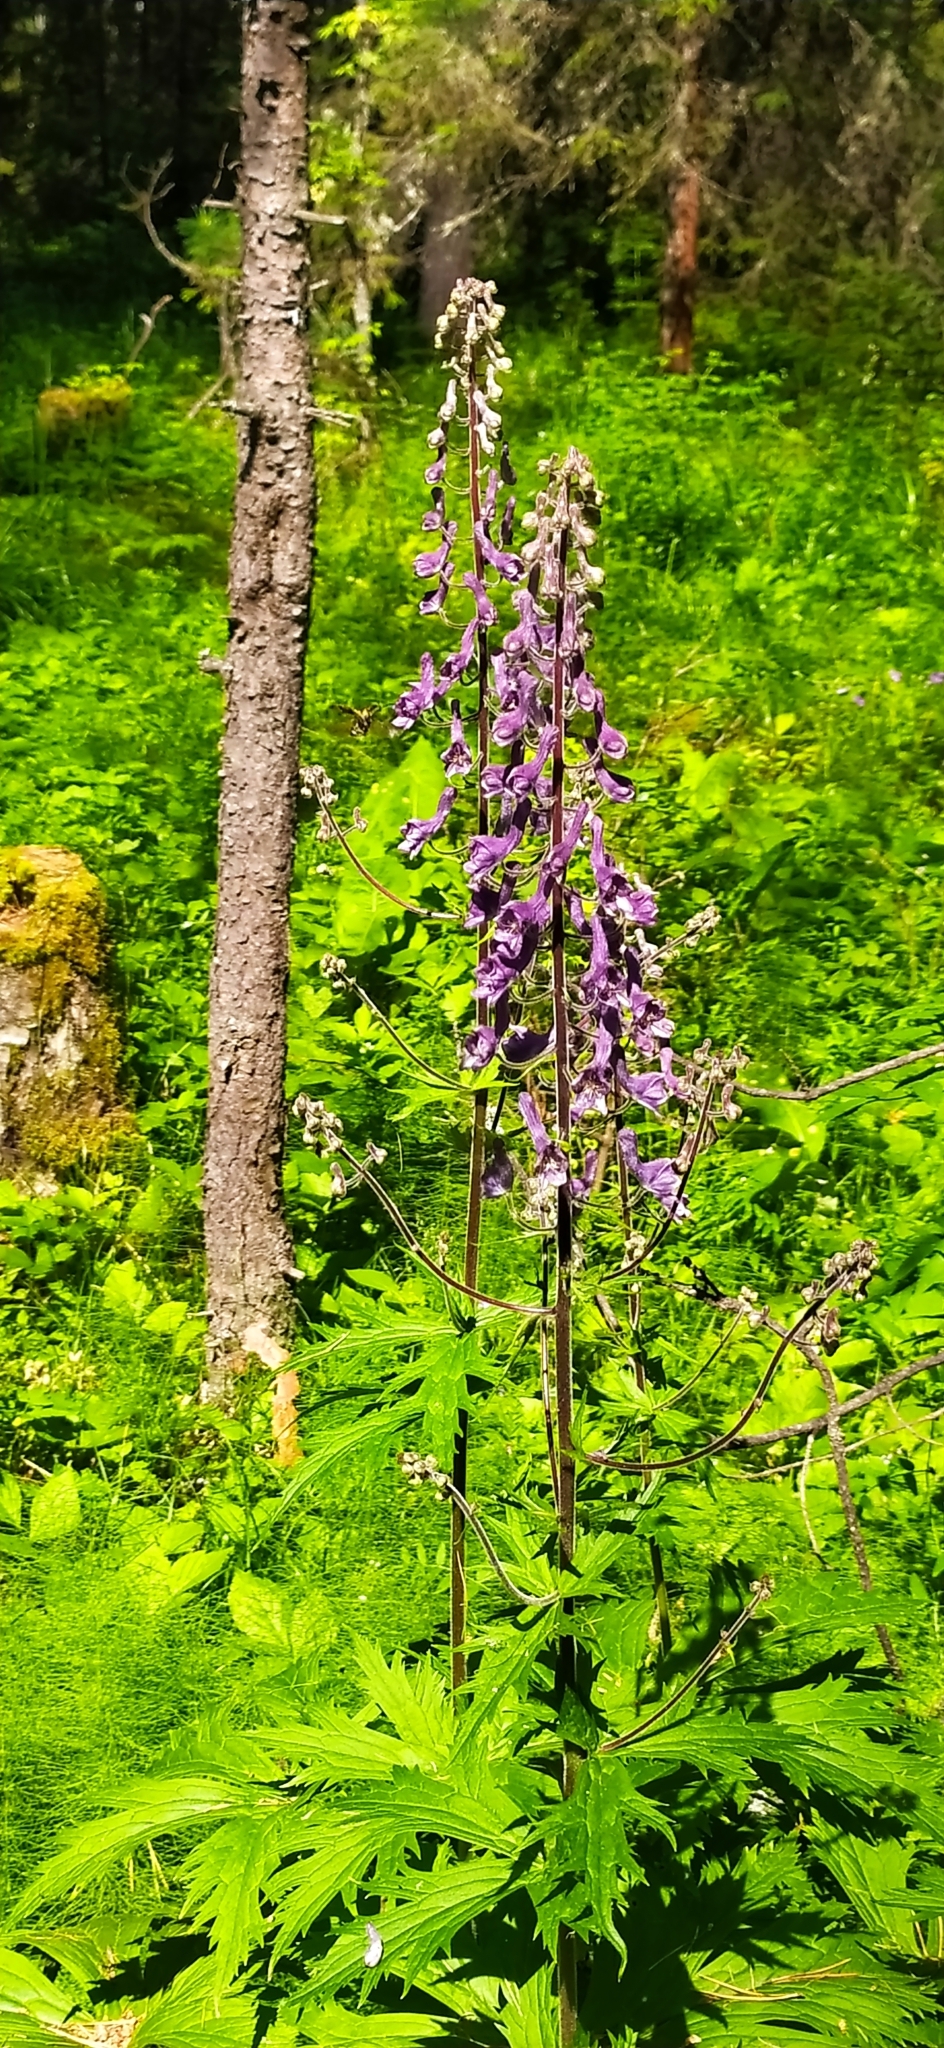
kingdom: Plantae
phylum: Tracheophyta
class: Magnoliopsida
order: Ranunculales
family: Ranunculaceae
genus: Aconitum
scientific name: Aconitum septentrionale
